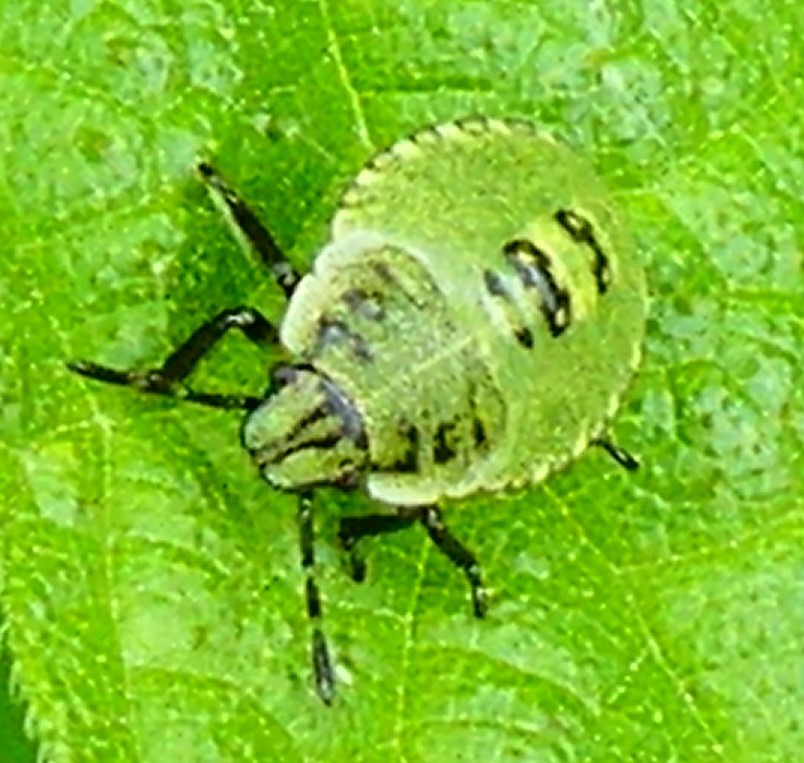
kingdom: Animalia
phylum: Arthropoda
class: Insecta
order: Hemiptera
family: Pentatomidae
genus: Palomena
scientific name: Palomena prasina
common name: Green shieldbug
